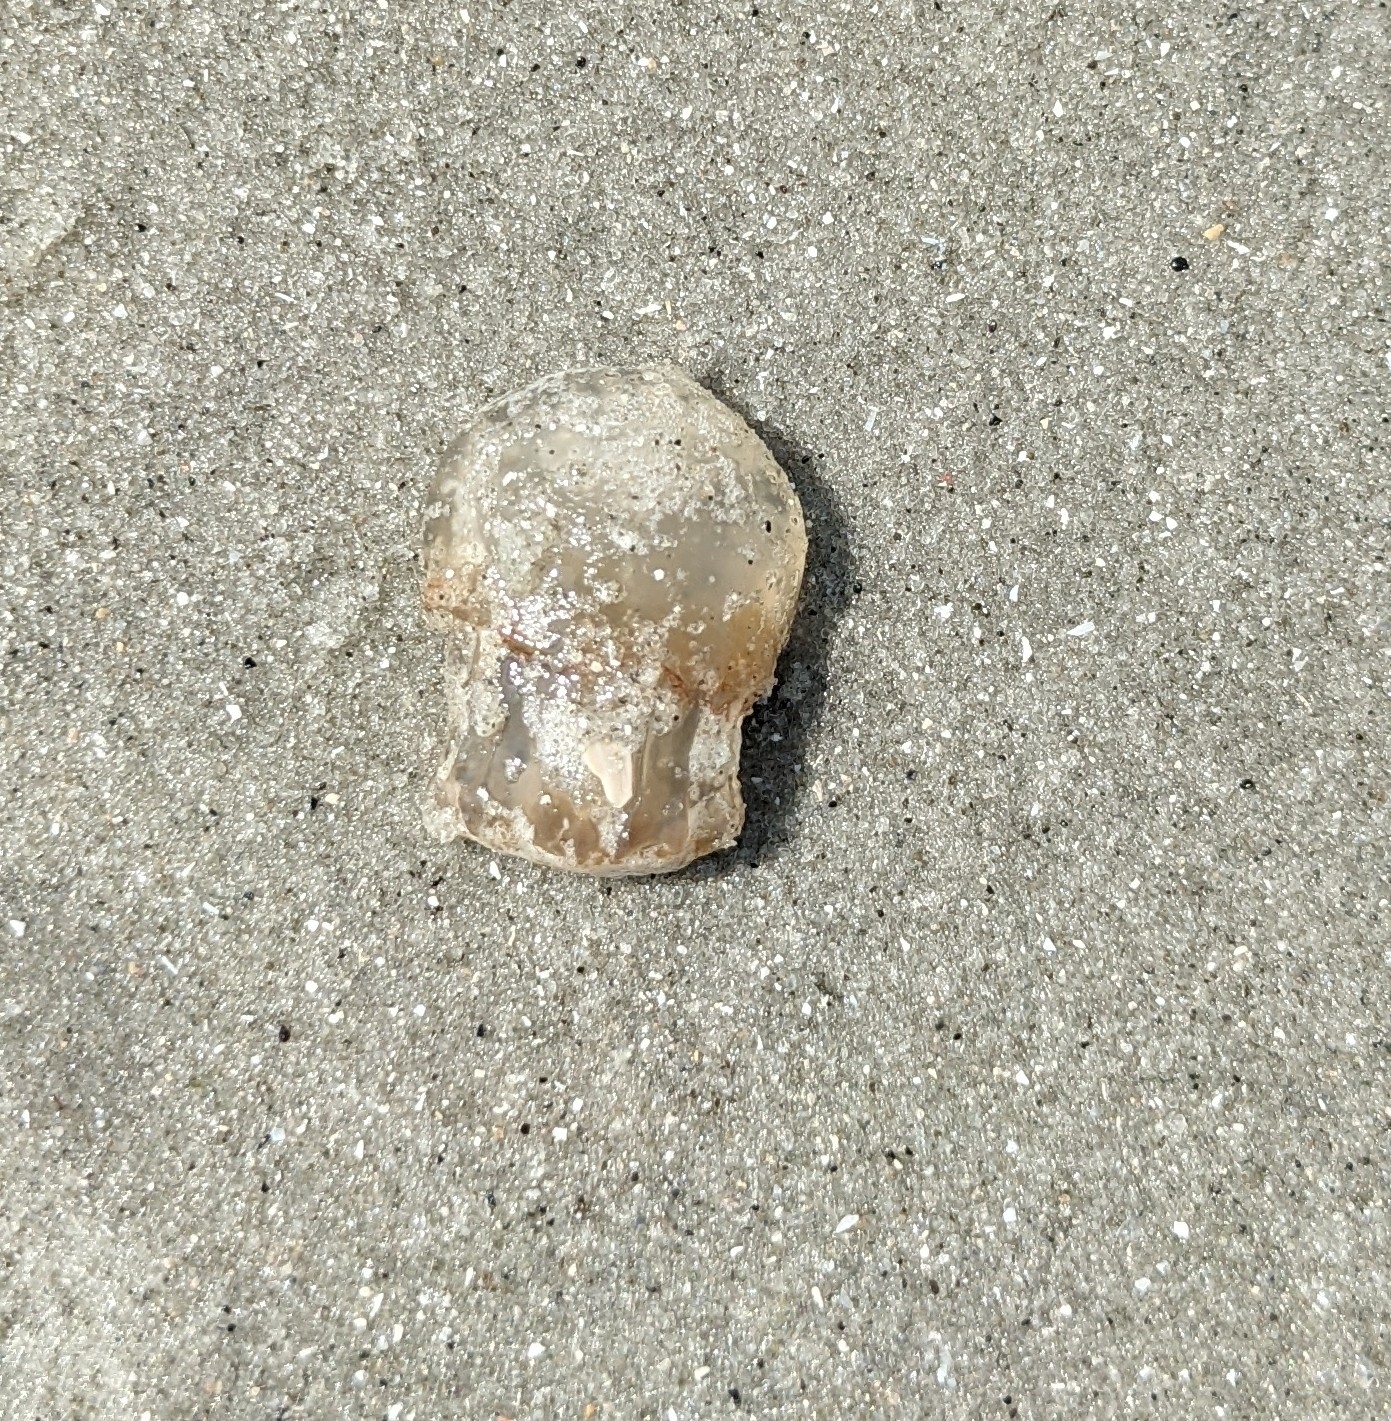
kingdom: Animalia
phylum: Cnidaria
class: Scyphozoa
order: Rhizostomeae
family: Stomolophidae
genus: Stomolophus
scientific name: Stomolophus meleagris
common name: Cabbagehead
